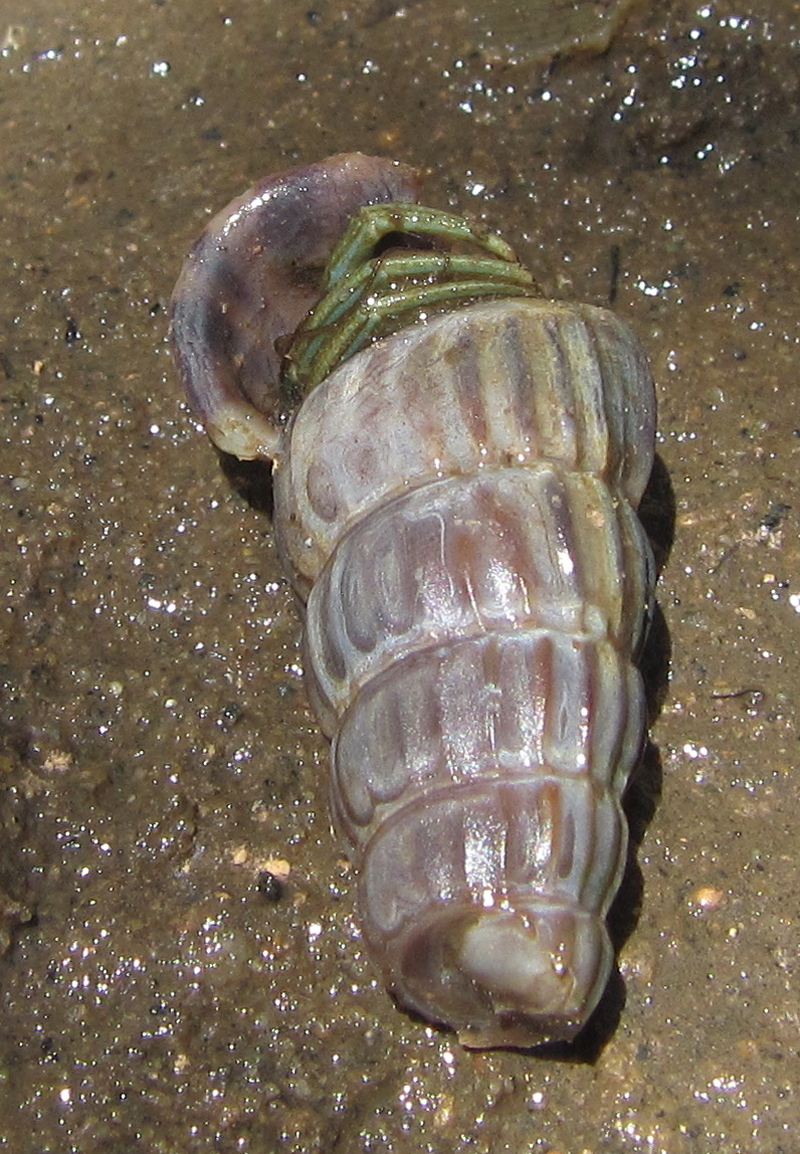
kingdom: Animalia
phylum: Arthropoda
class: Malacostraca
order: Decapoda
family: Diogenidae
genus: Clibanarius
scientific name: Clibanarius longitarsus
